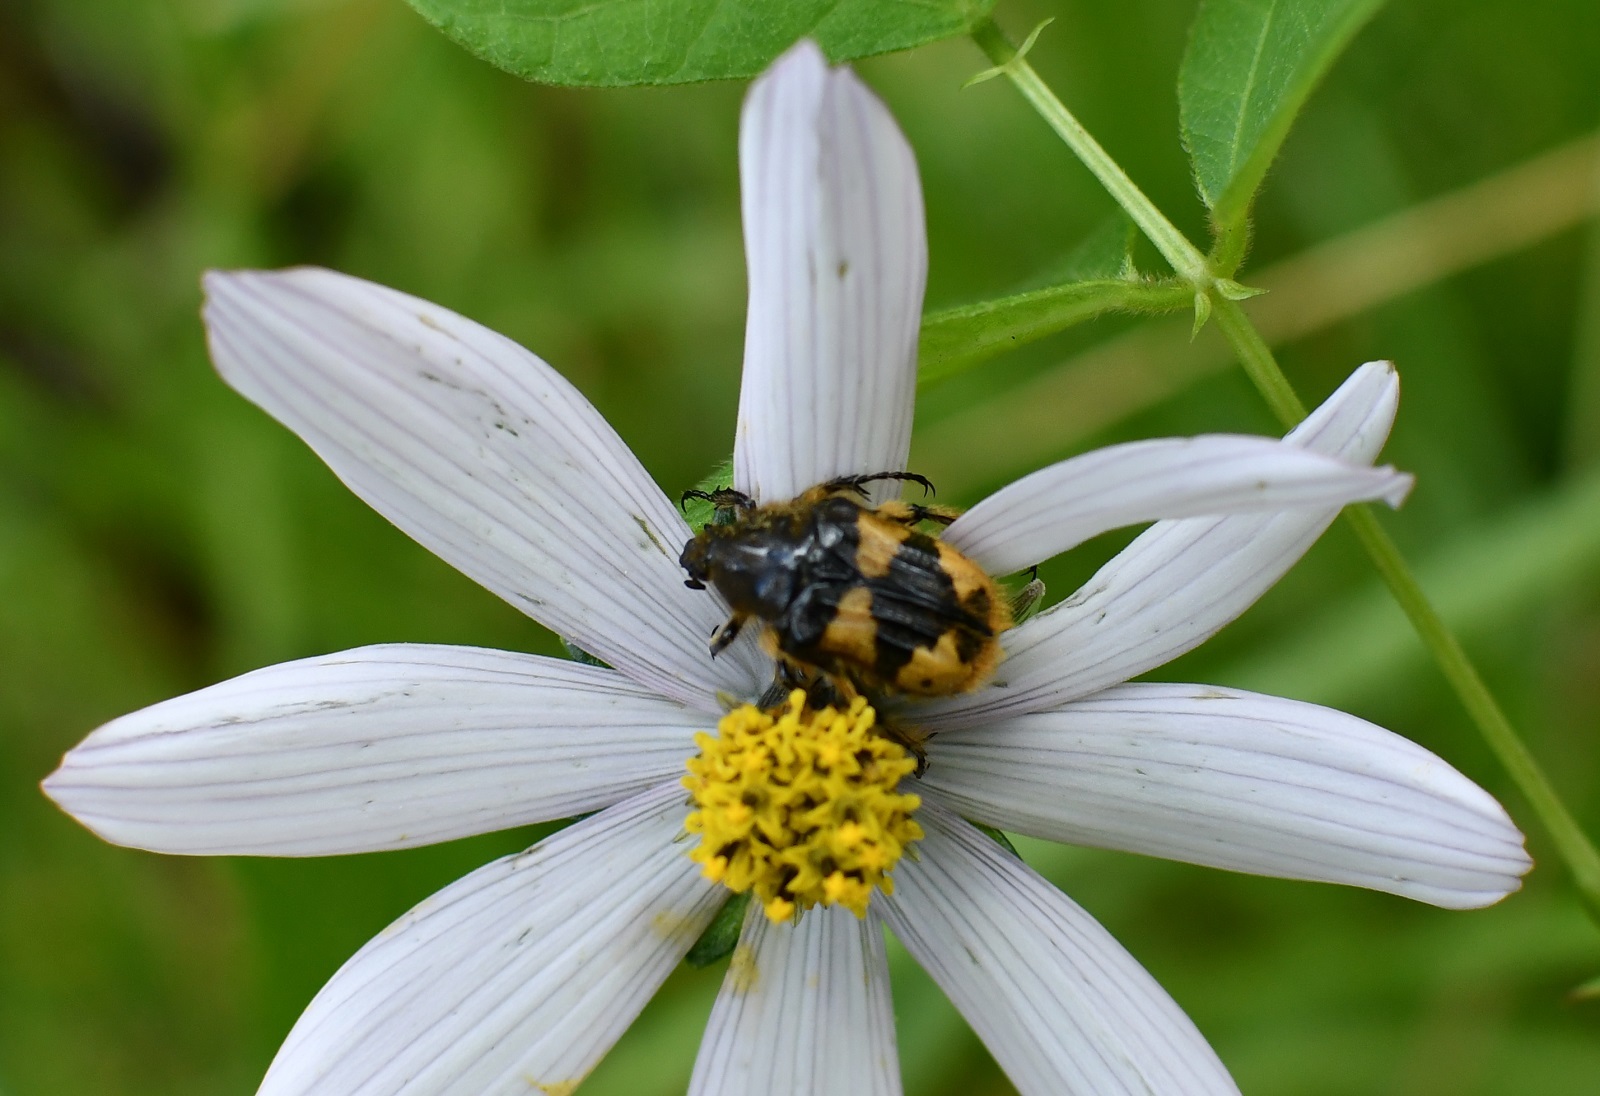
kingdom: Animalia
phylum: Arthropoda
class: Insecta
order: Coleoptera
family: Scarabaeidae
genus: Euphoria
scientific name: Euphoria basalis
